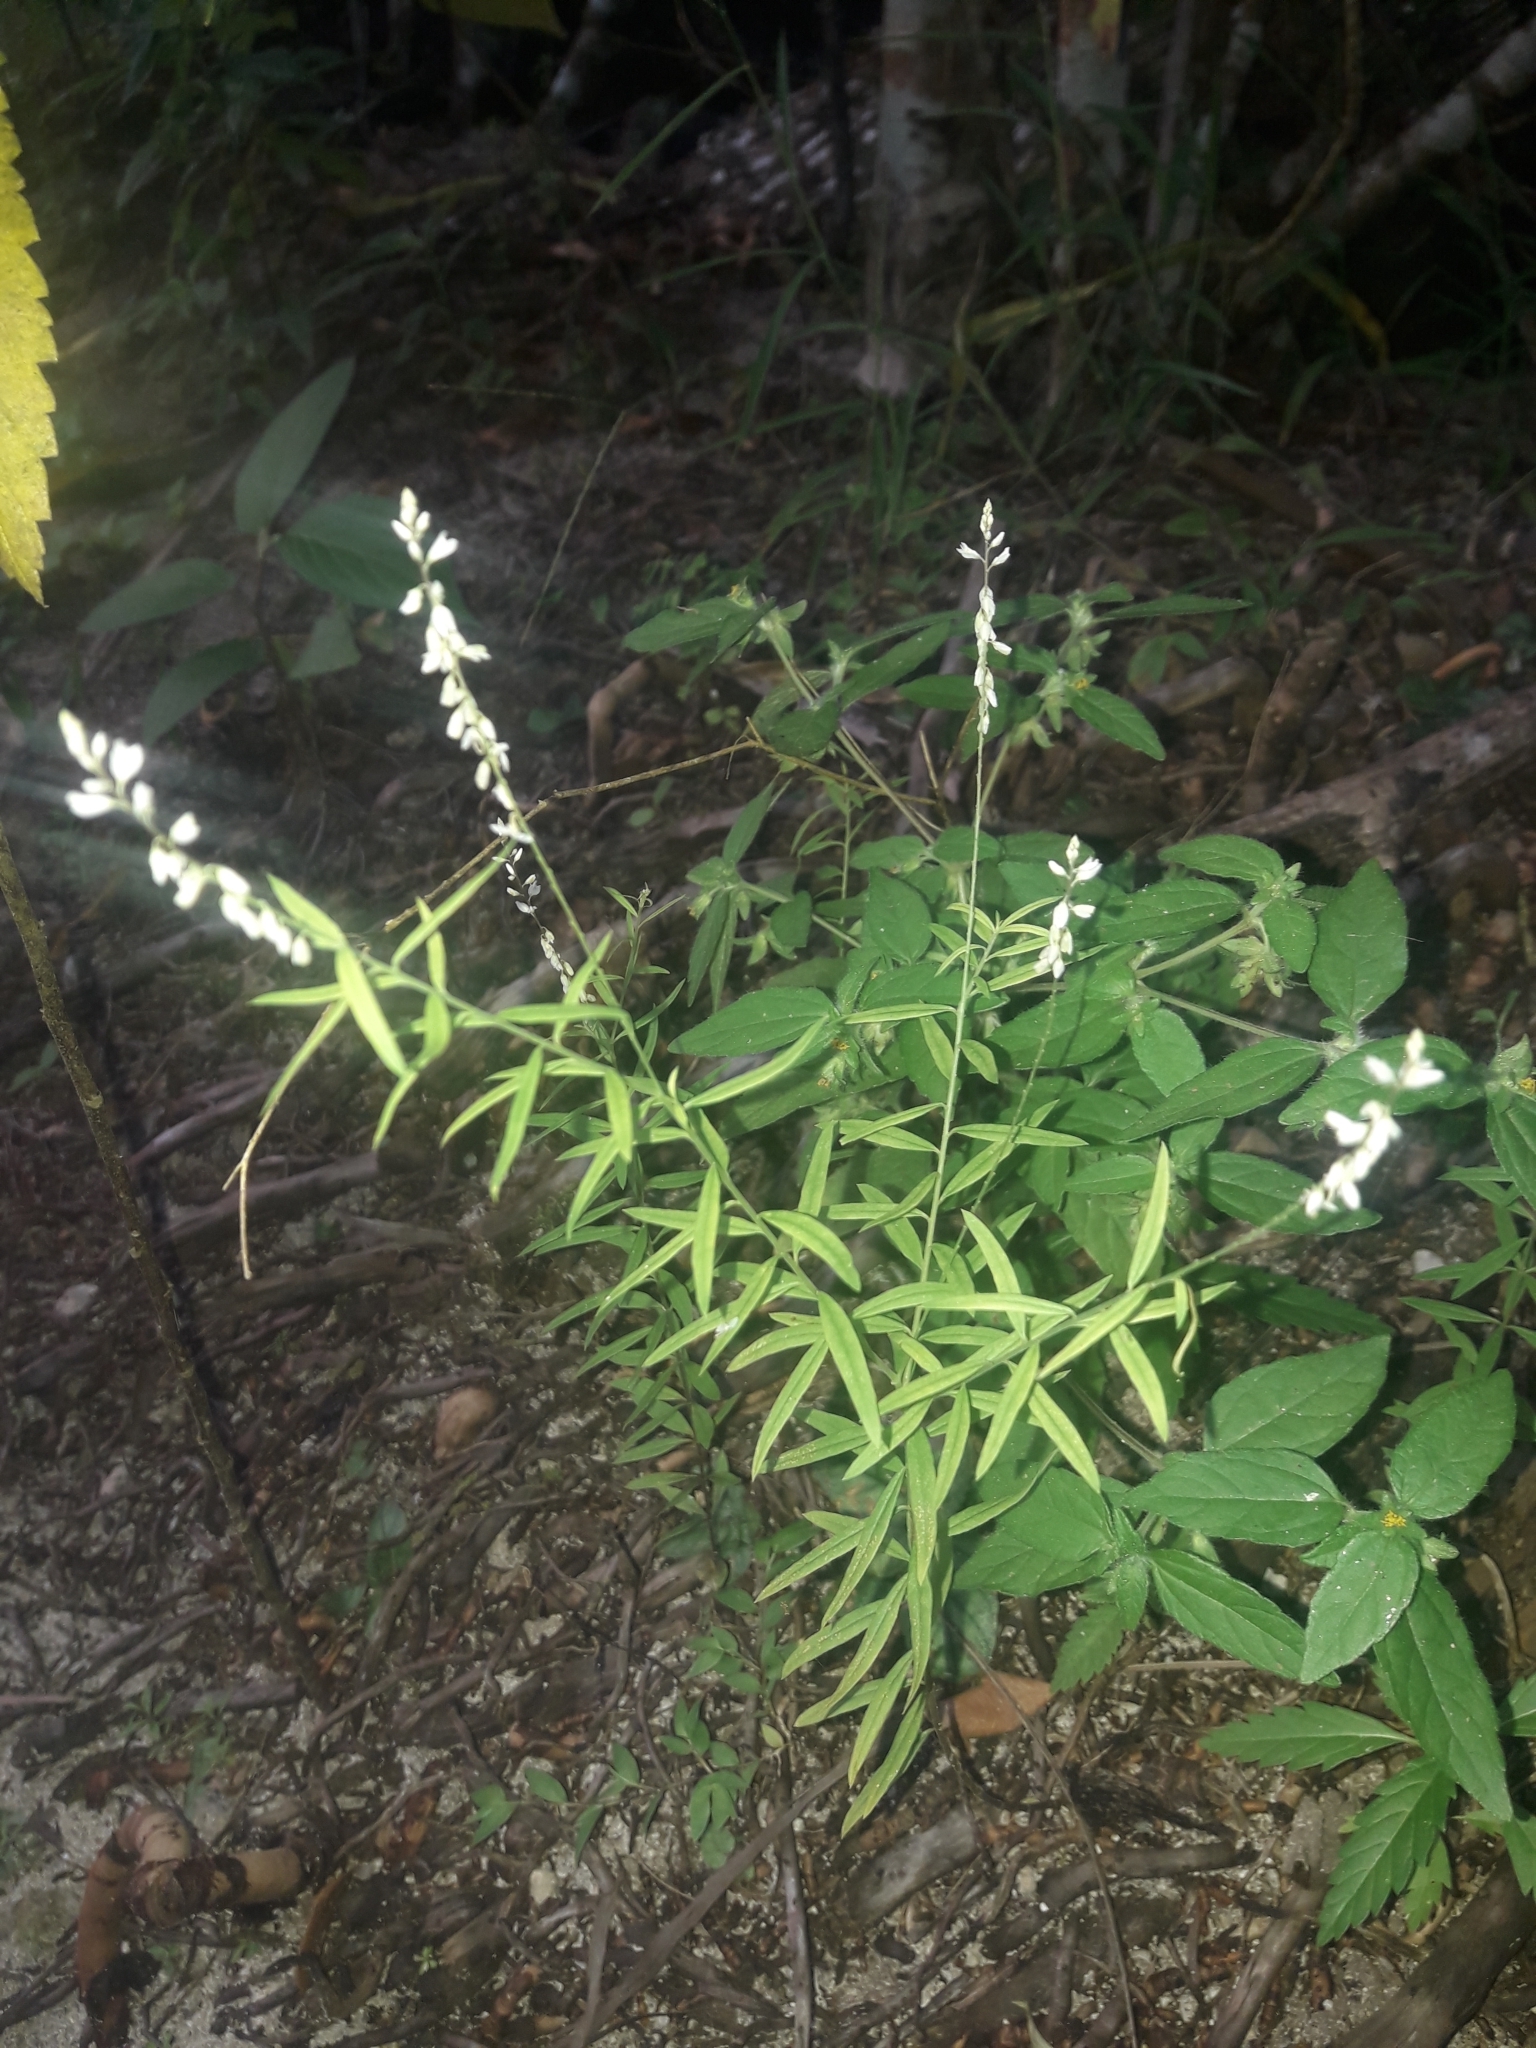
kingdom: Plantae
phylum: Tracheophyta
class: Magnoliopsida
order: Fabales
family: Polygalaceae
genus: Polygala
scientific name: Polygala paniculata
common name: Orosne
